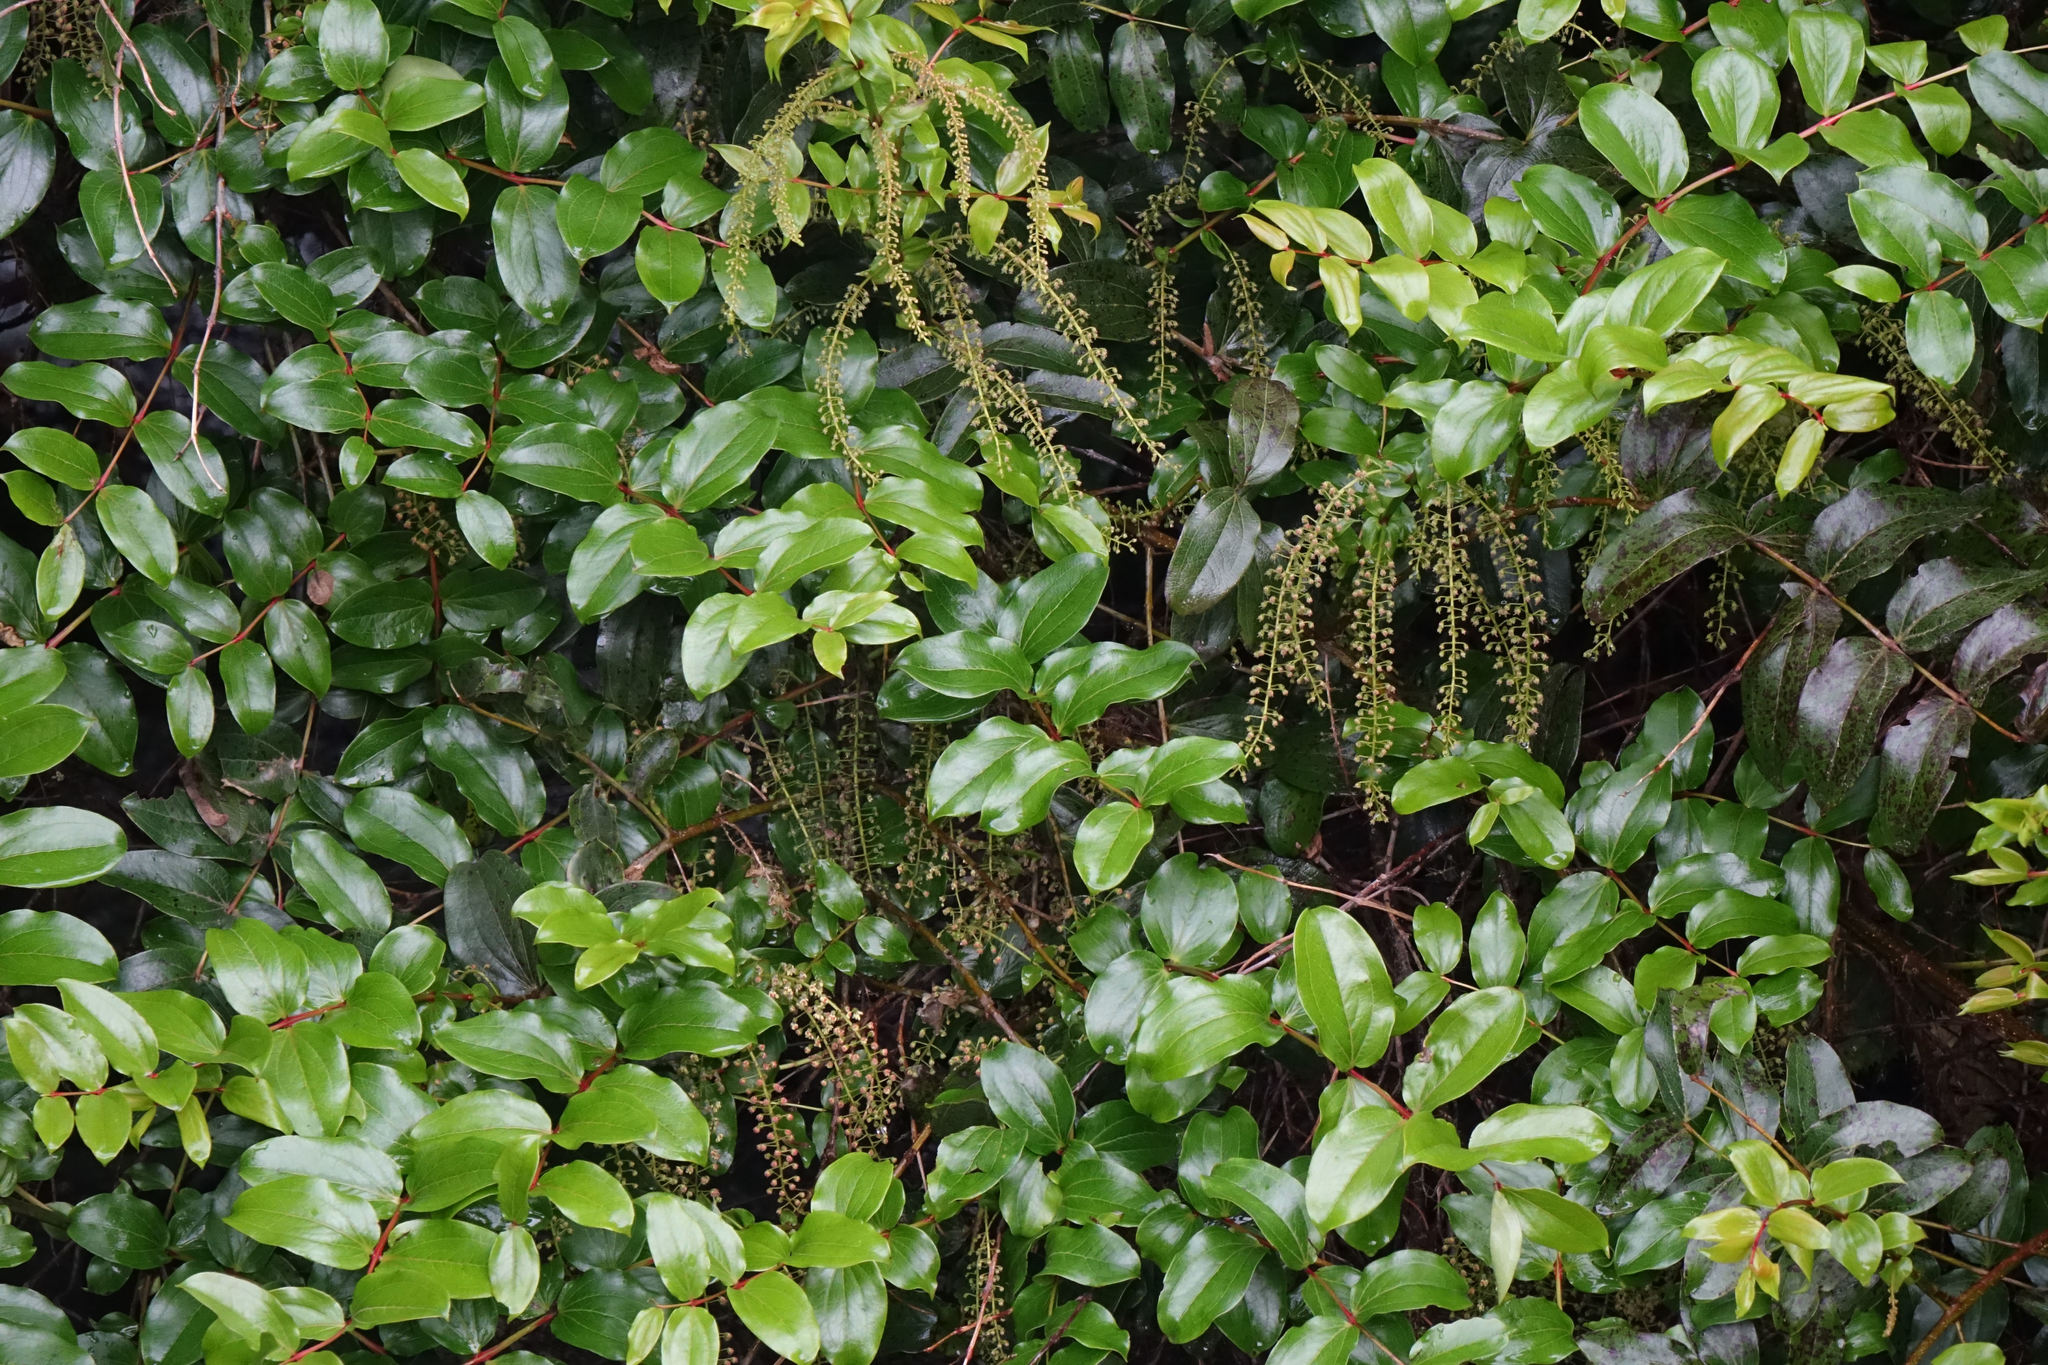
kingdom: Plantae
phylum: Tracheophyta
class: Magnoliopsida
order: Cucurbitales
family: Coriariaceae
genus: Coriaria
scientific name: Coriaria arborea
